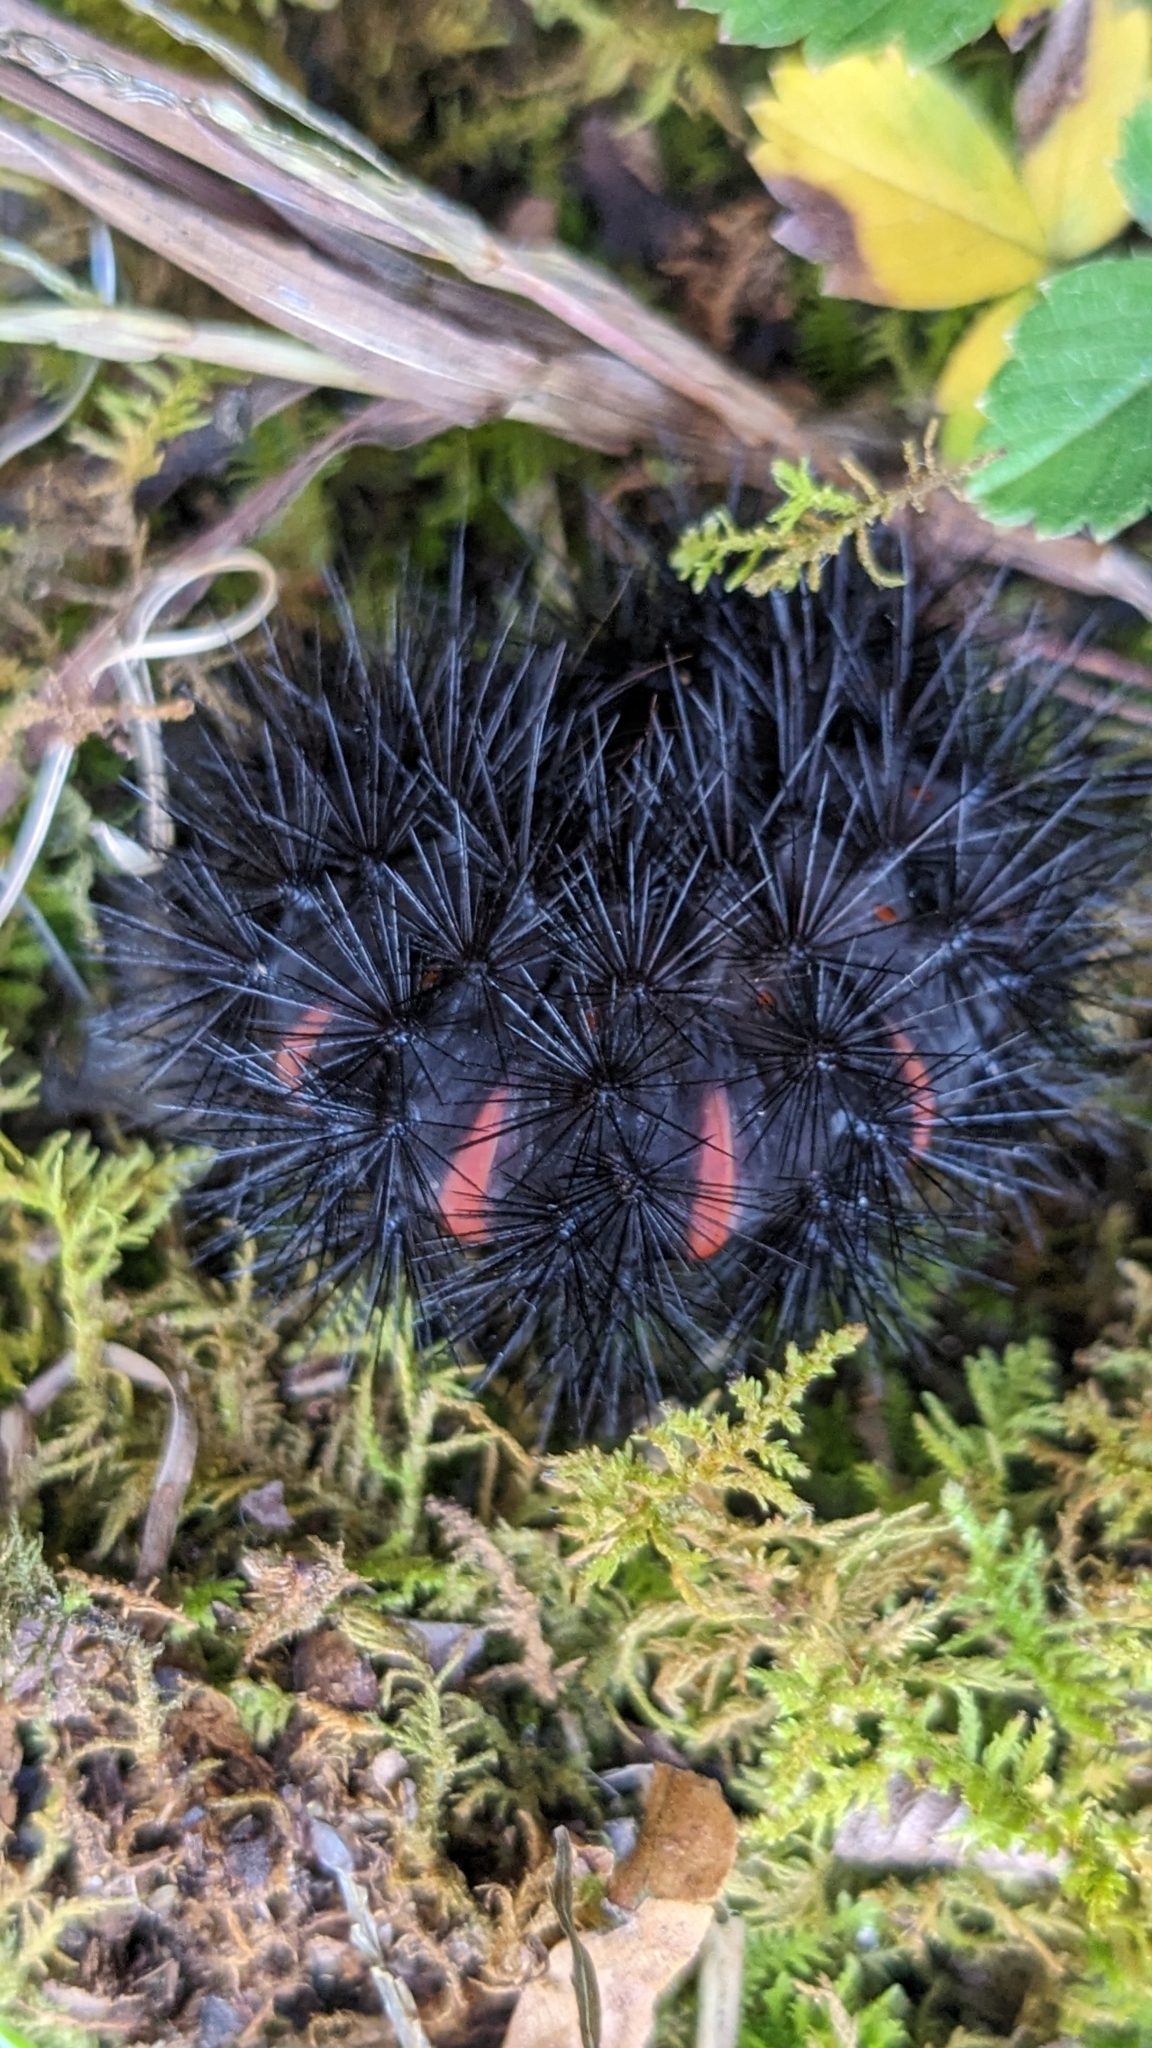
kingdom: Animalia
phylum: Arthropoda
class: Insecta
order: Lepidoptera
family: Erebidae
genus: Hypercompe
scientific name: Hypercompe scribonia
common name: Giant leopard moth
